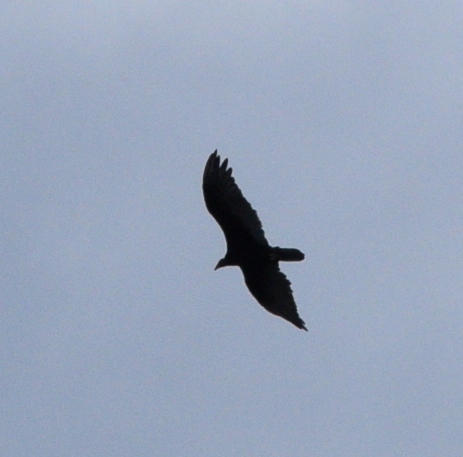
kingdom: Animalia
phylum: Chordata
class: Aves
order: Accipitriformes
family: Cathartidae
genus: Cathartes
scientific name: Cathartes aura
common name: Turkey vulture
